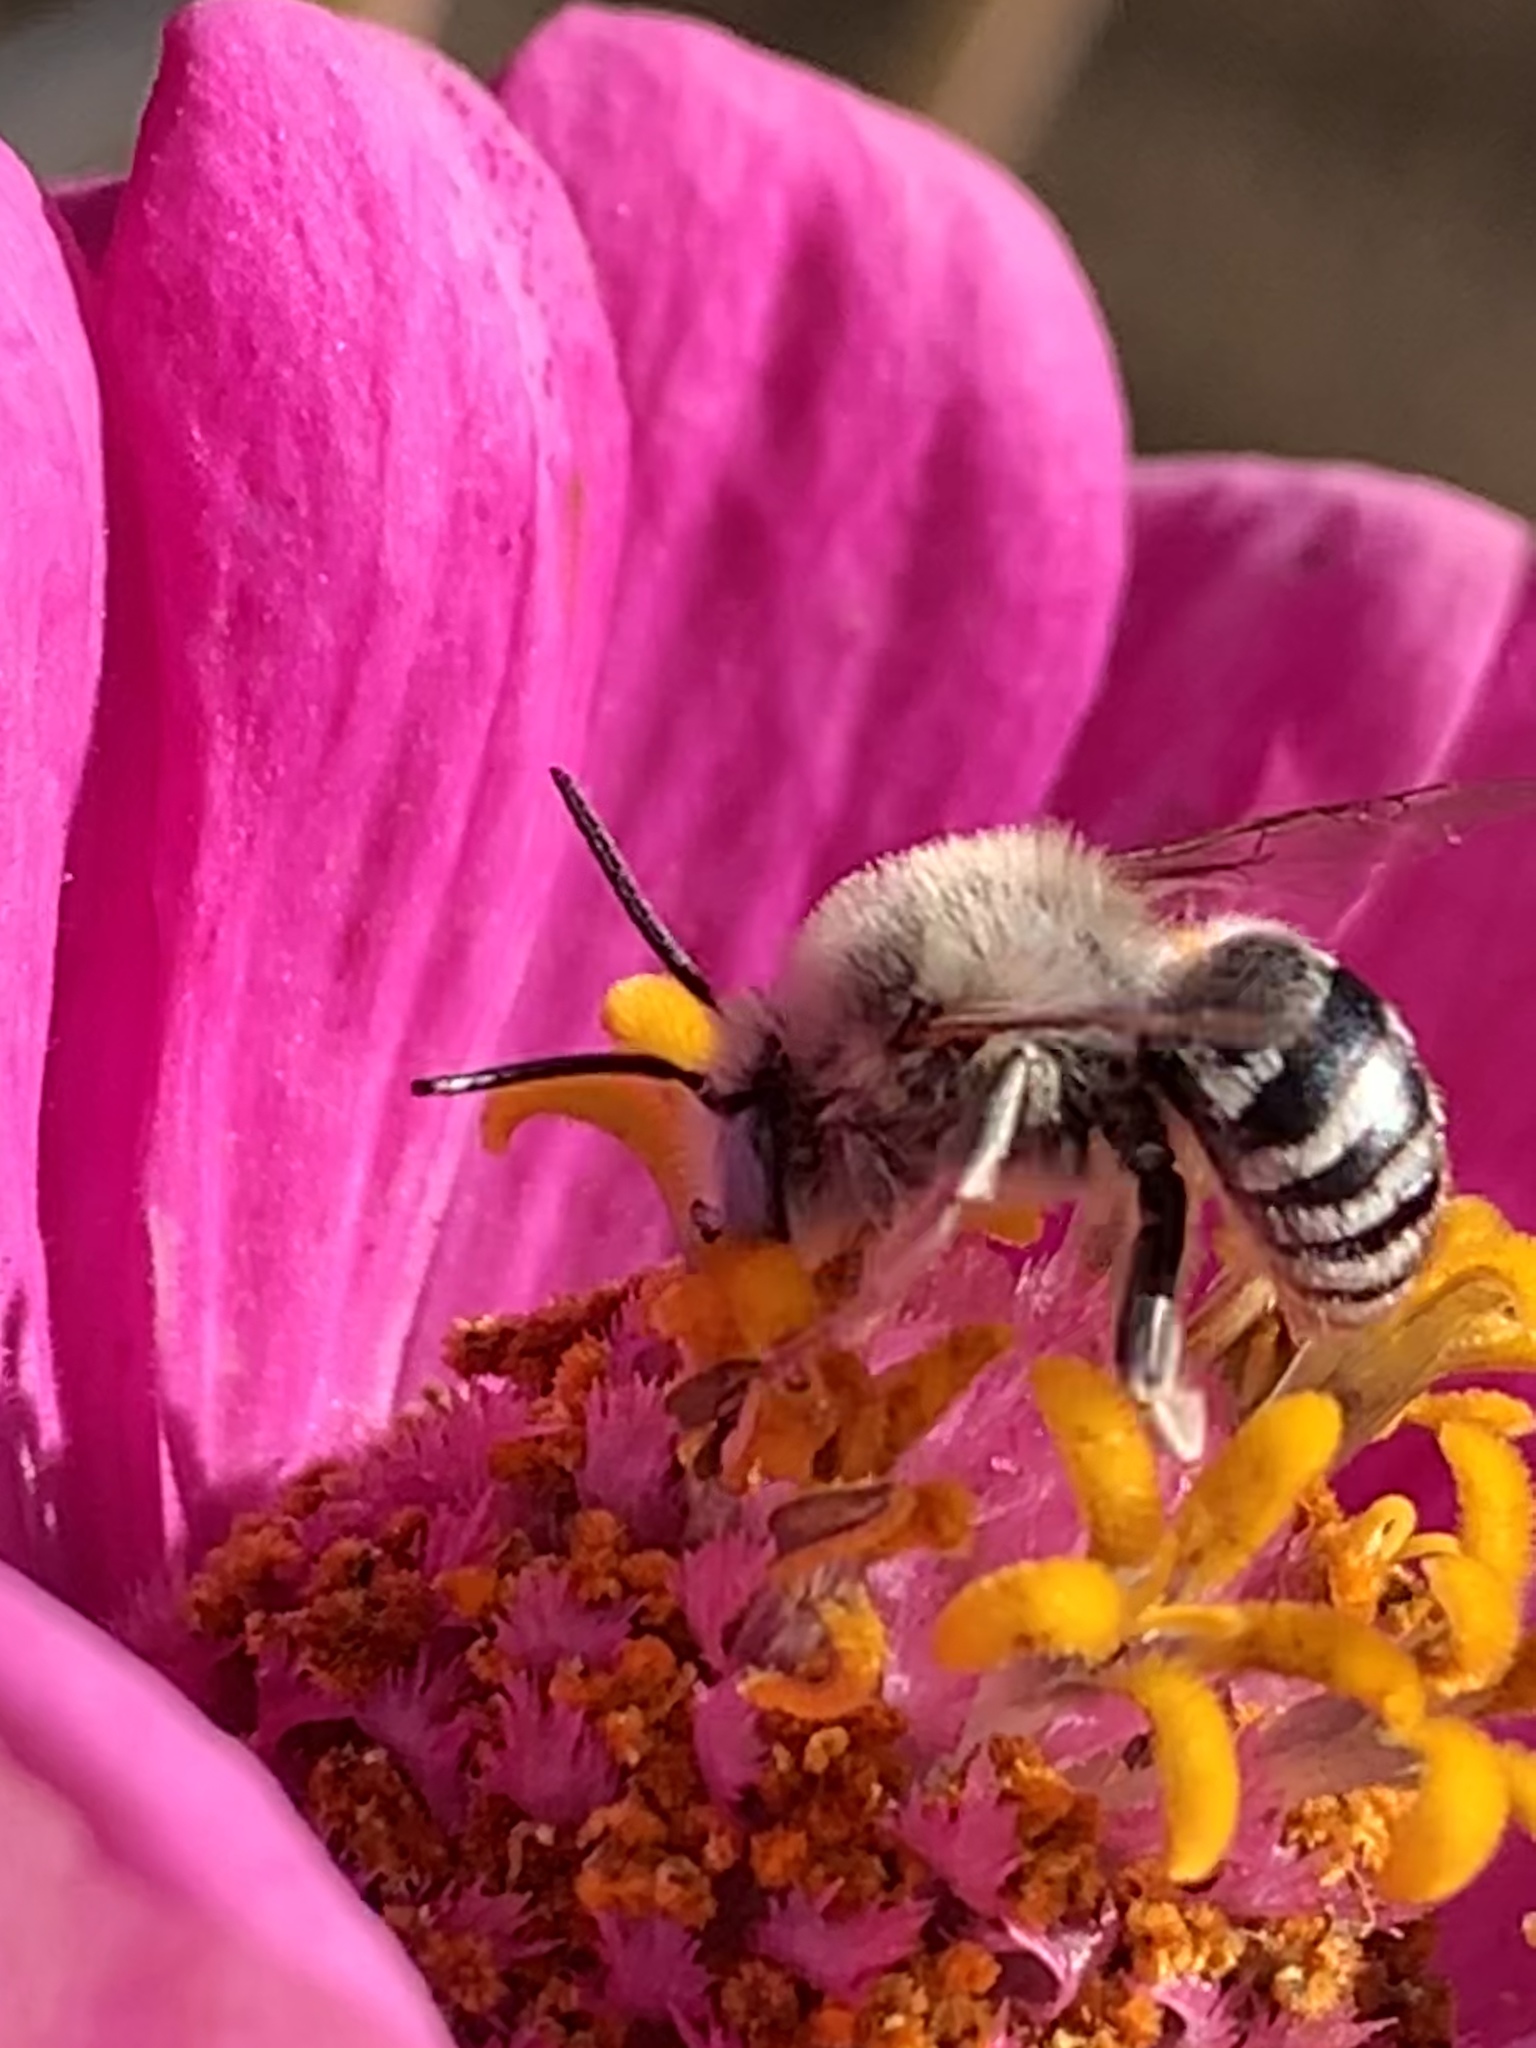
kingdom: Animalia
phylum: Arthropoda
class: Insecta
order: Hymenoptera
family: Apidae
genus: Anthophora
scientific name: Anthophora urbana
